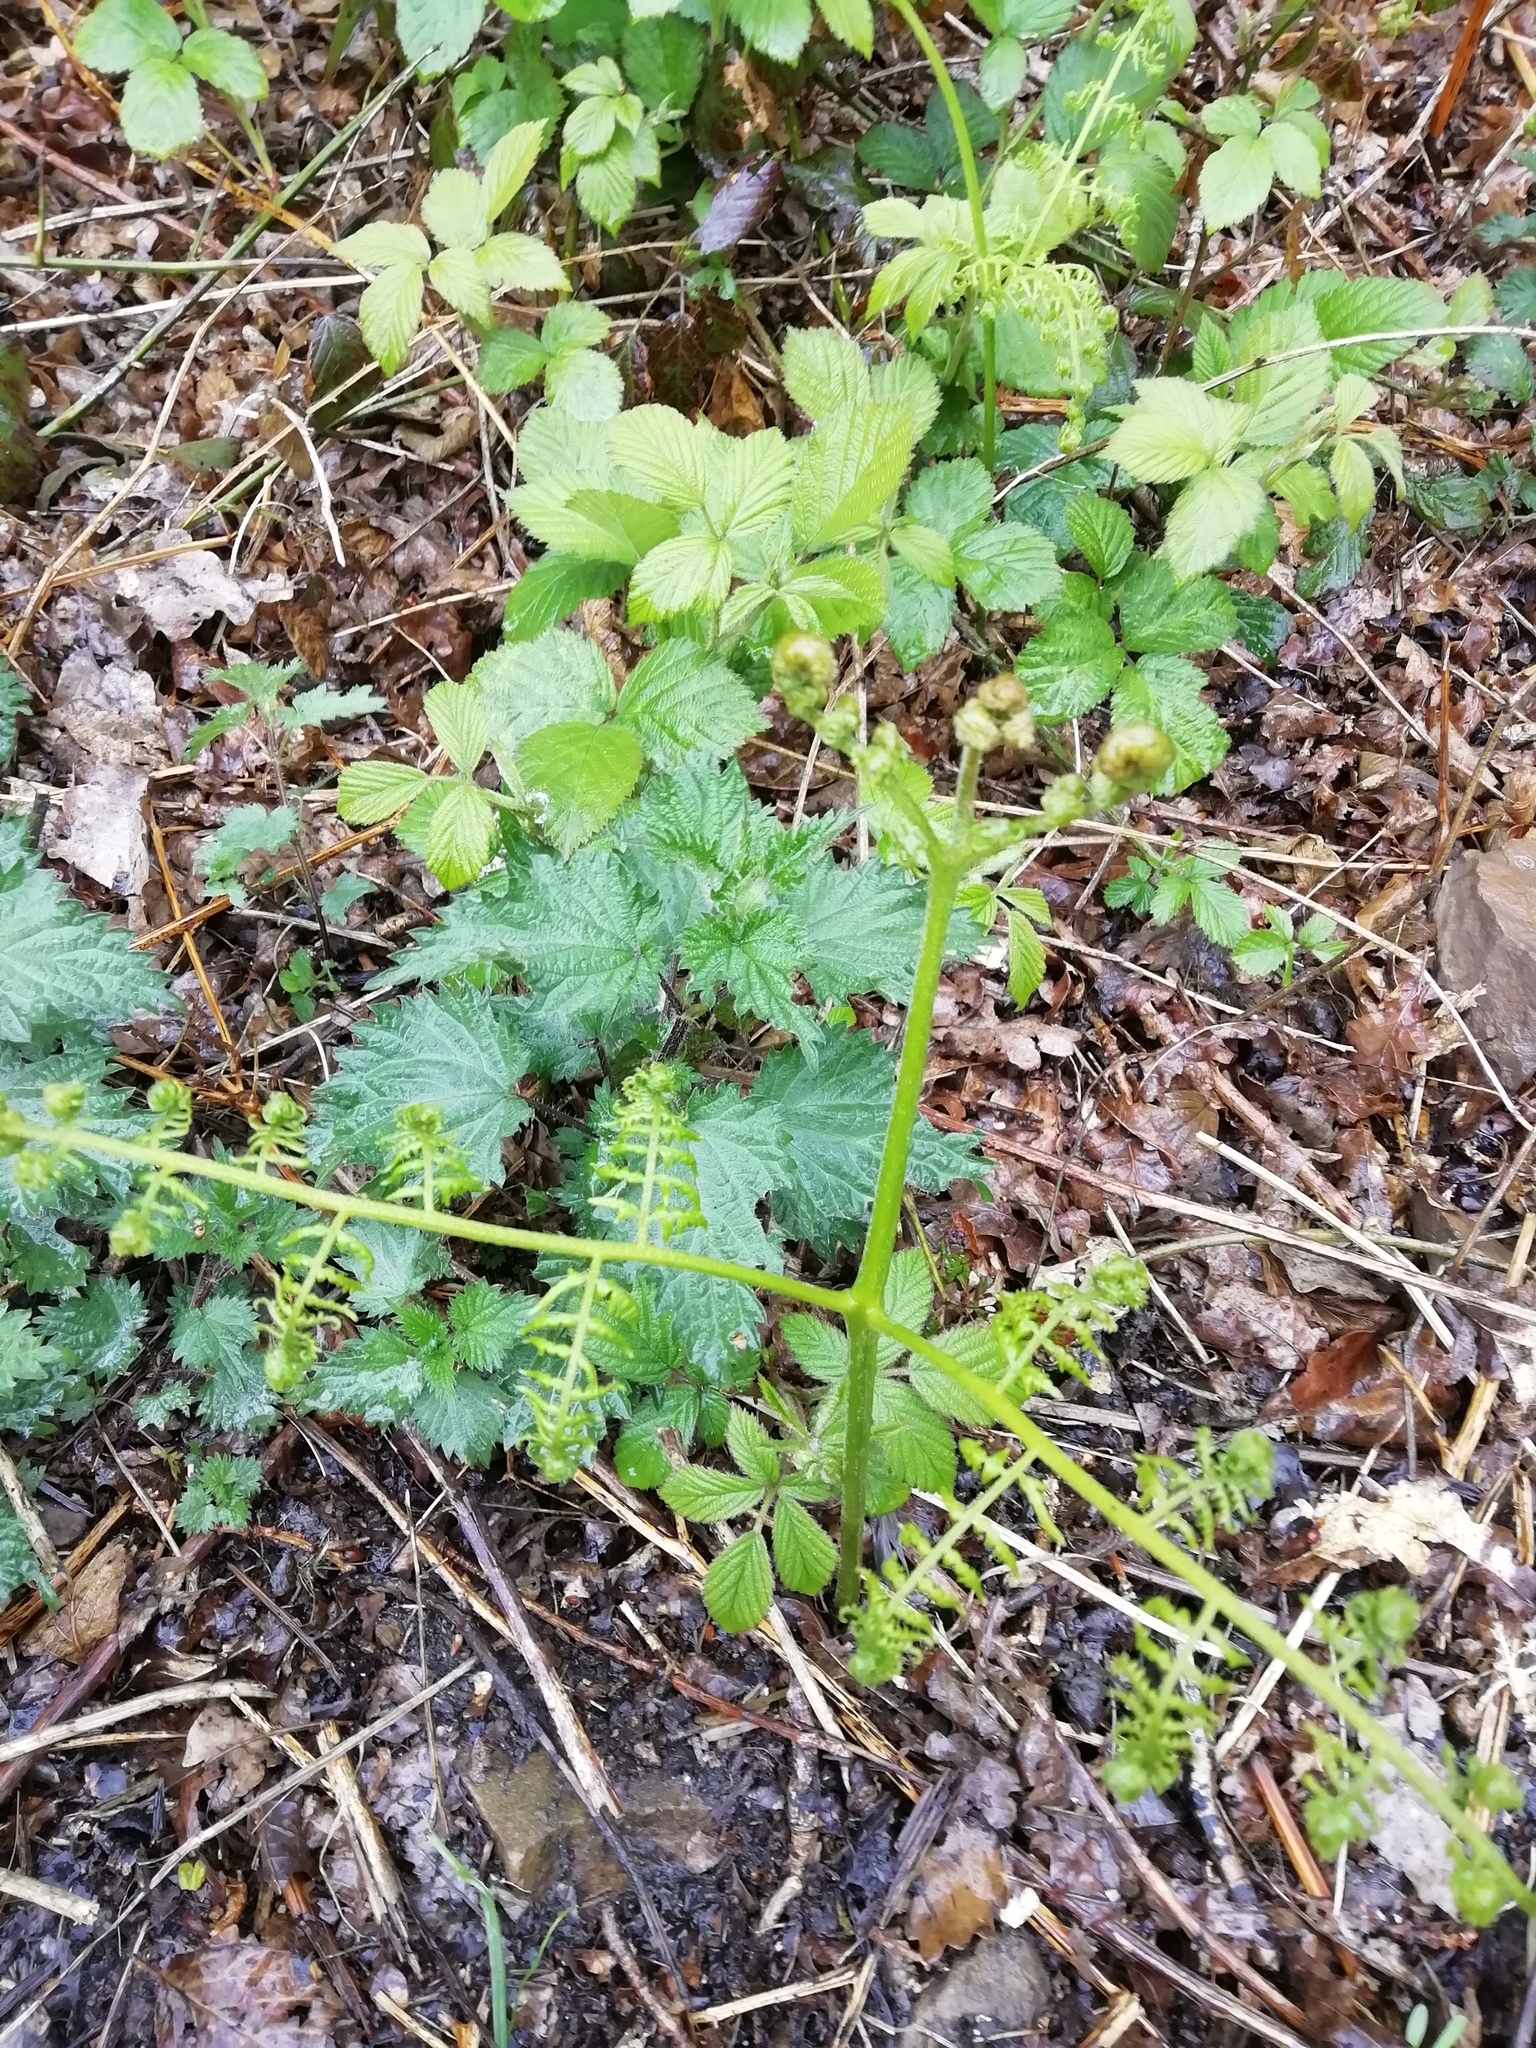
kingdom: Plantae
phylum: Tracheophyta
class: Polypodiopsida
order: Polypodiales
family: Dennstaedtiaceae
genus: Pteridium
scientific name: Pteridium aquilinum
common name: Bracken
